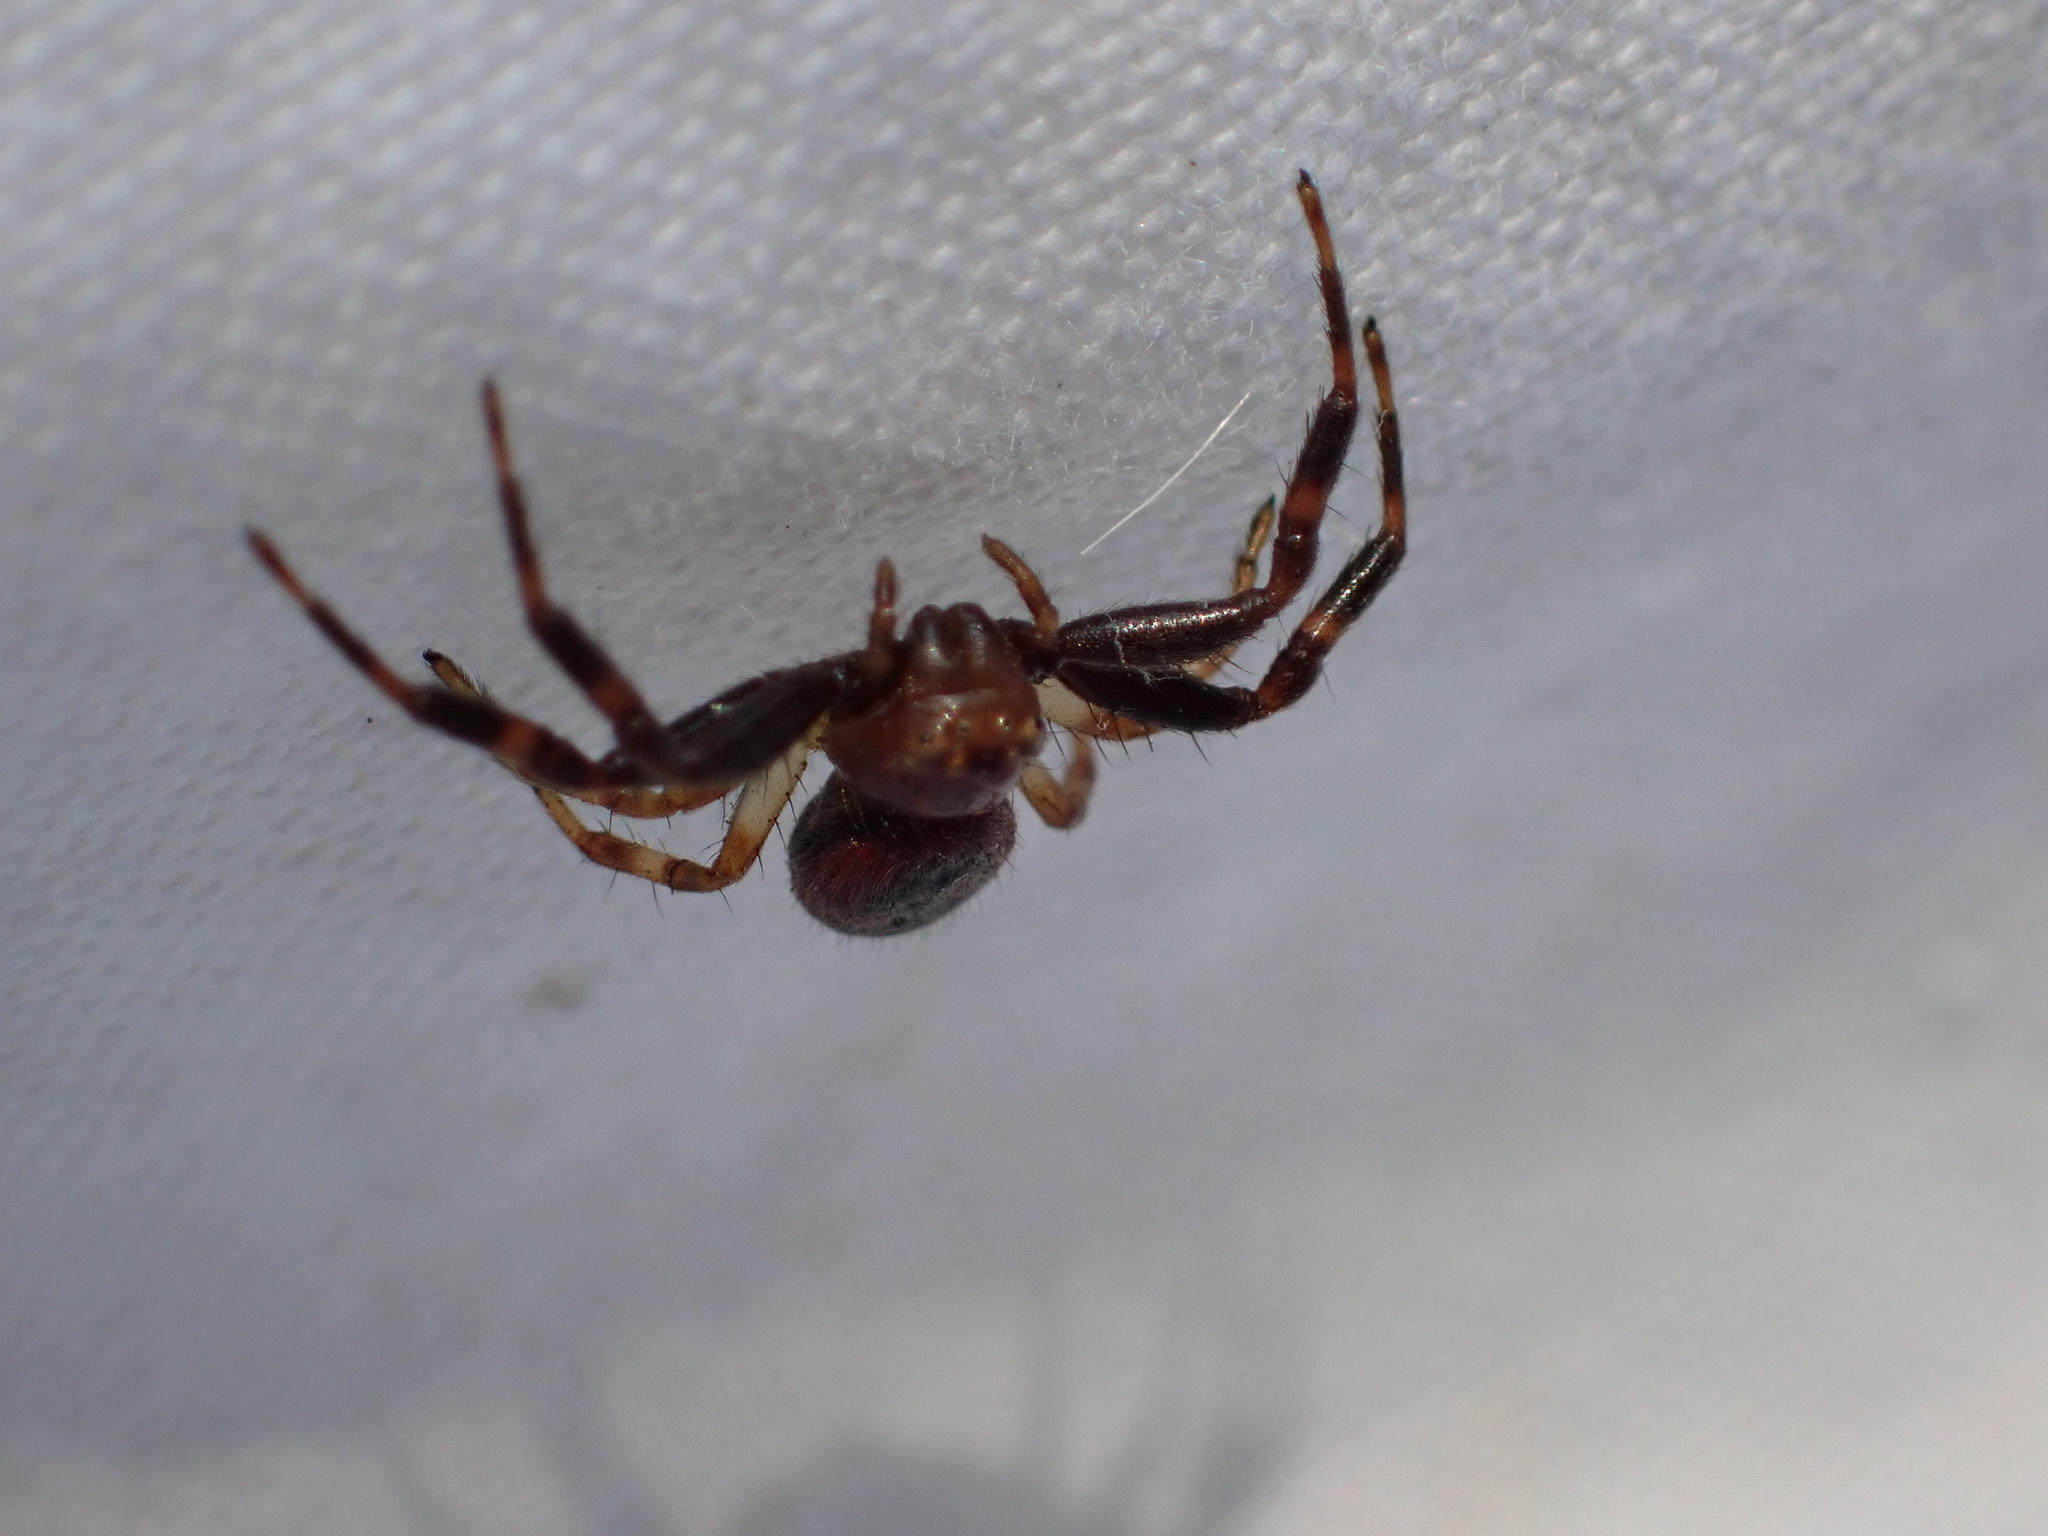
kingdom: Animalia
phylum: Arthropoda
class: Arachnida
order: Araneae
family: Thomisidae
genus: Synema
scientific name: Synema globosum
